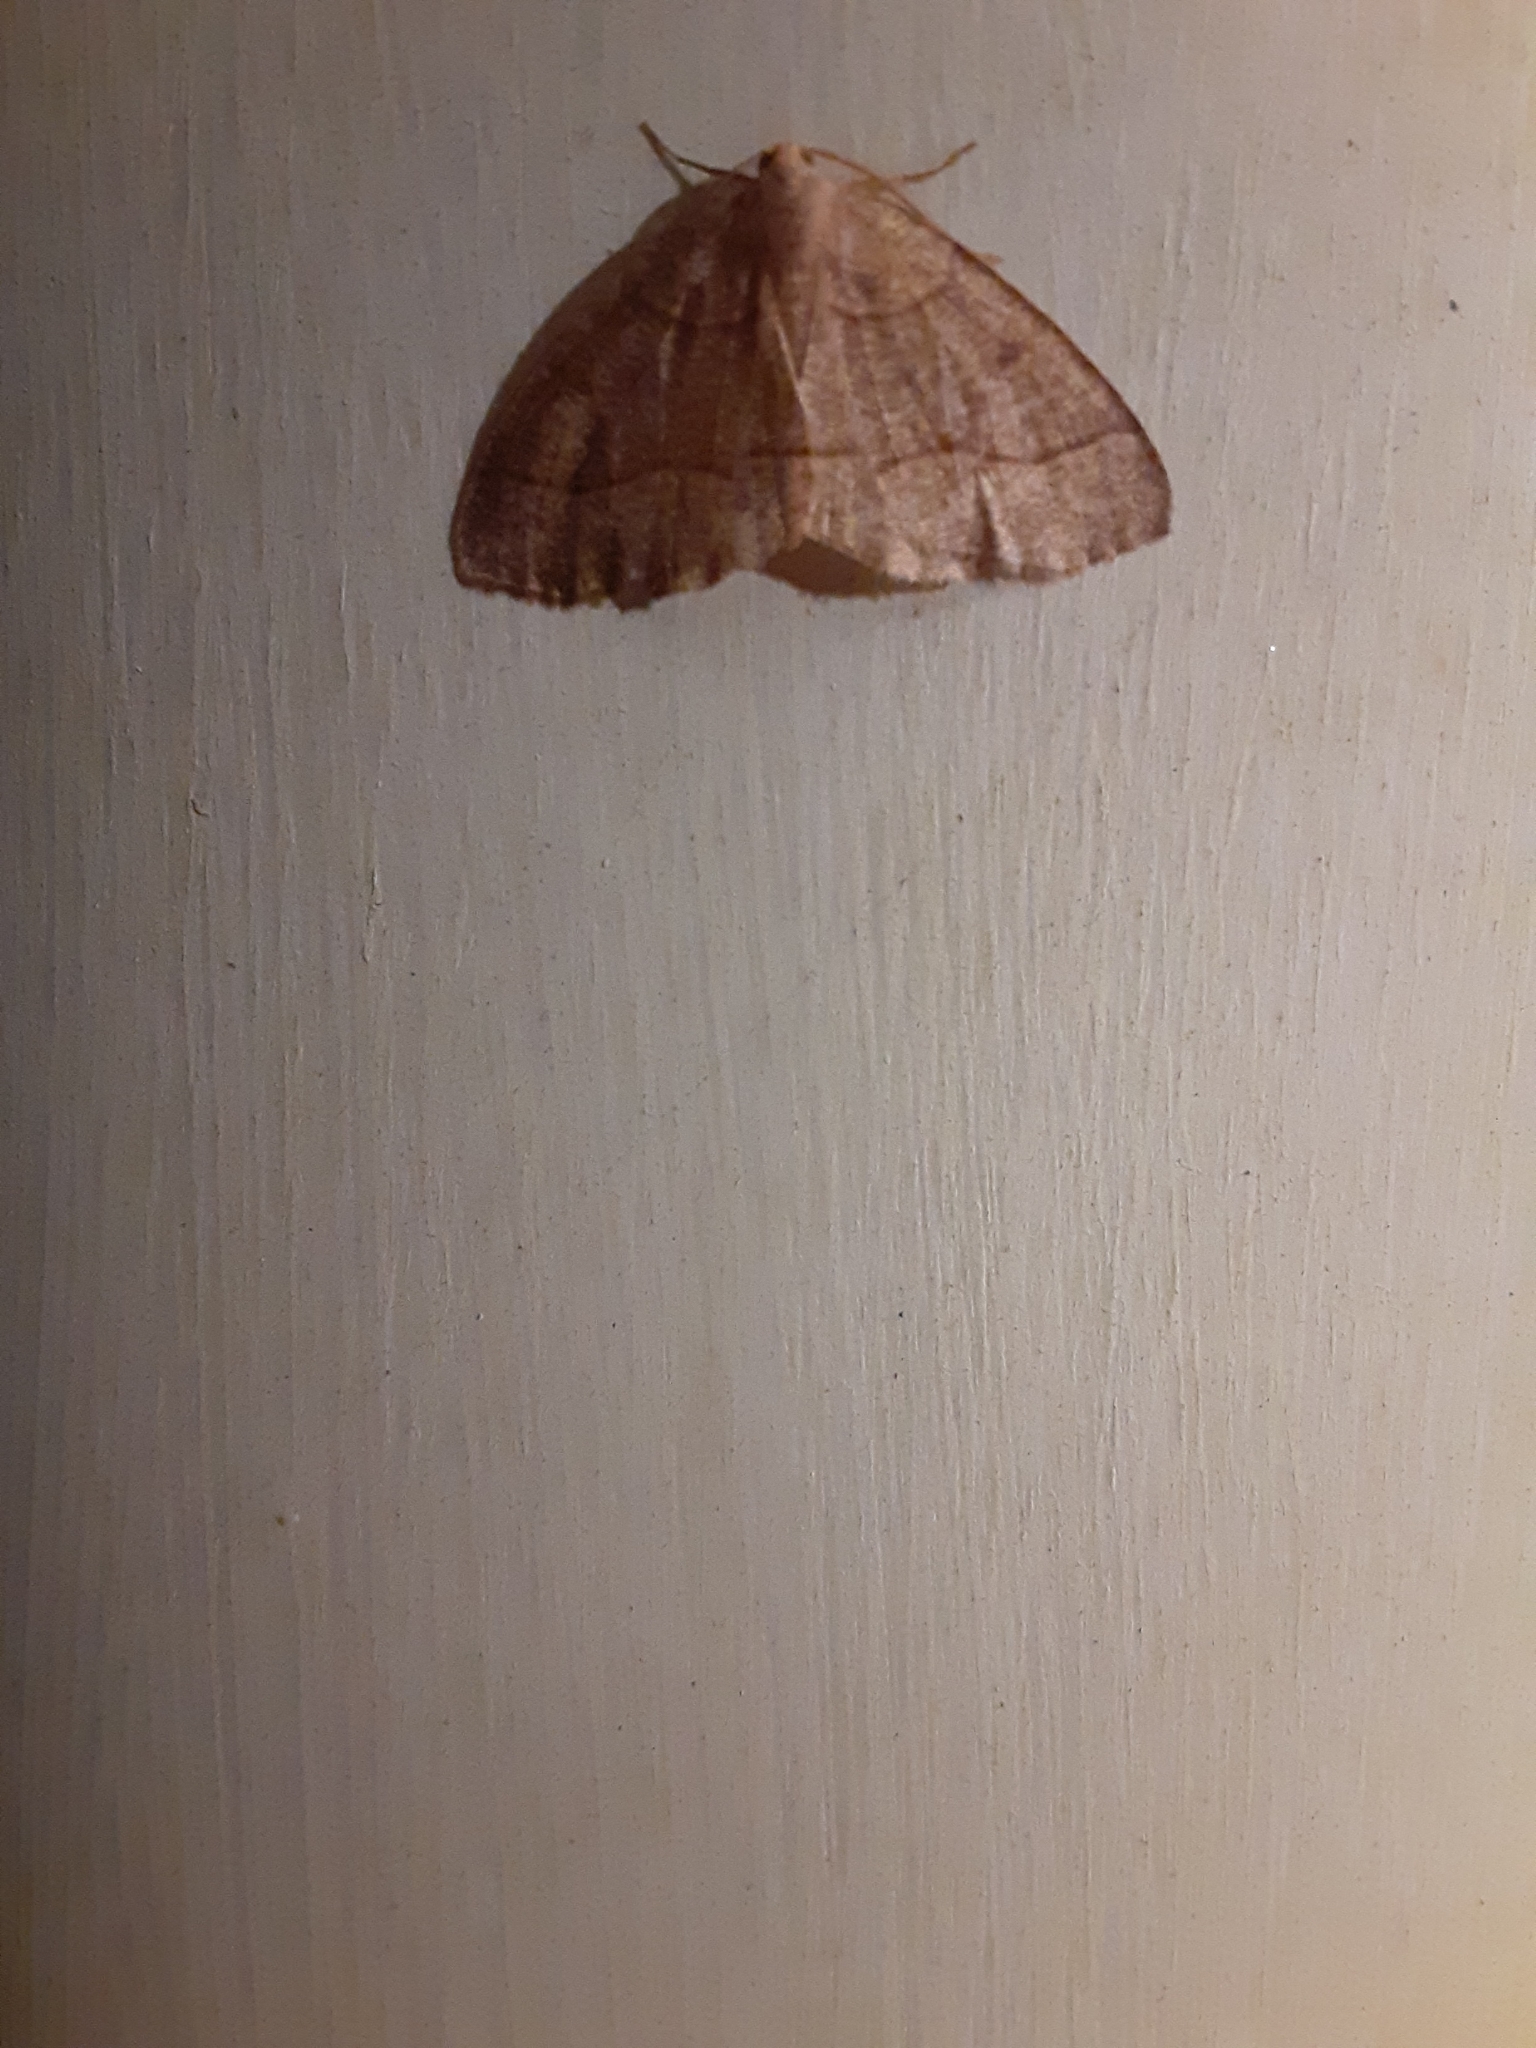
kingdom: Animalia
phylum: Arthropoda
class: Insecta
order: Lepidoptera
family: Geometridae
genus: Lambdina
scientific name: Lambdina fervidaria
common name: Curve-lined looper moth
